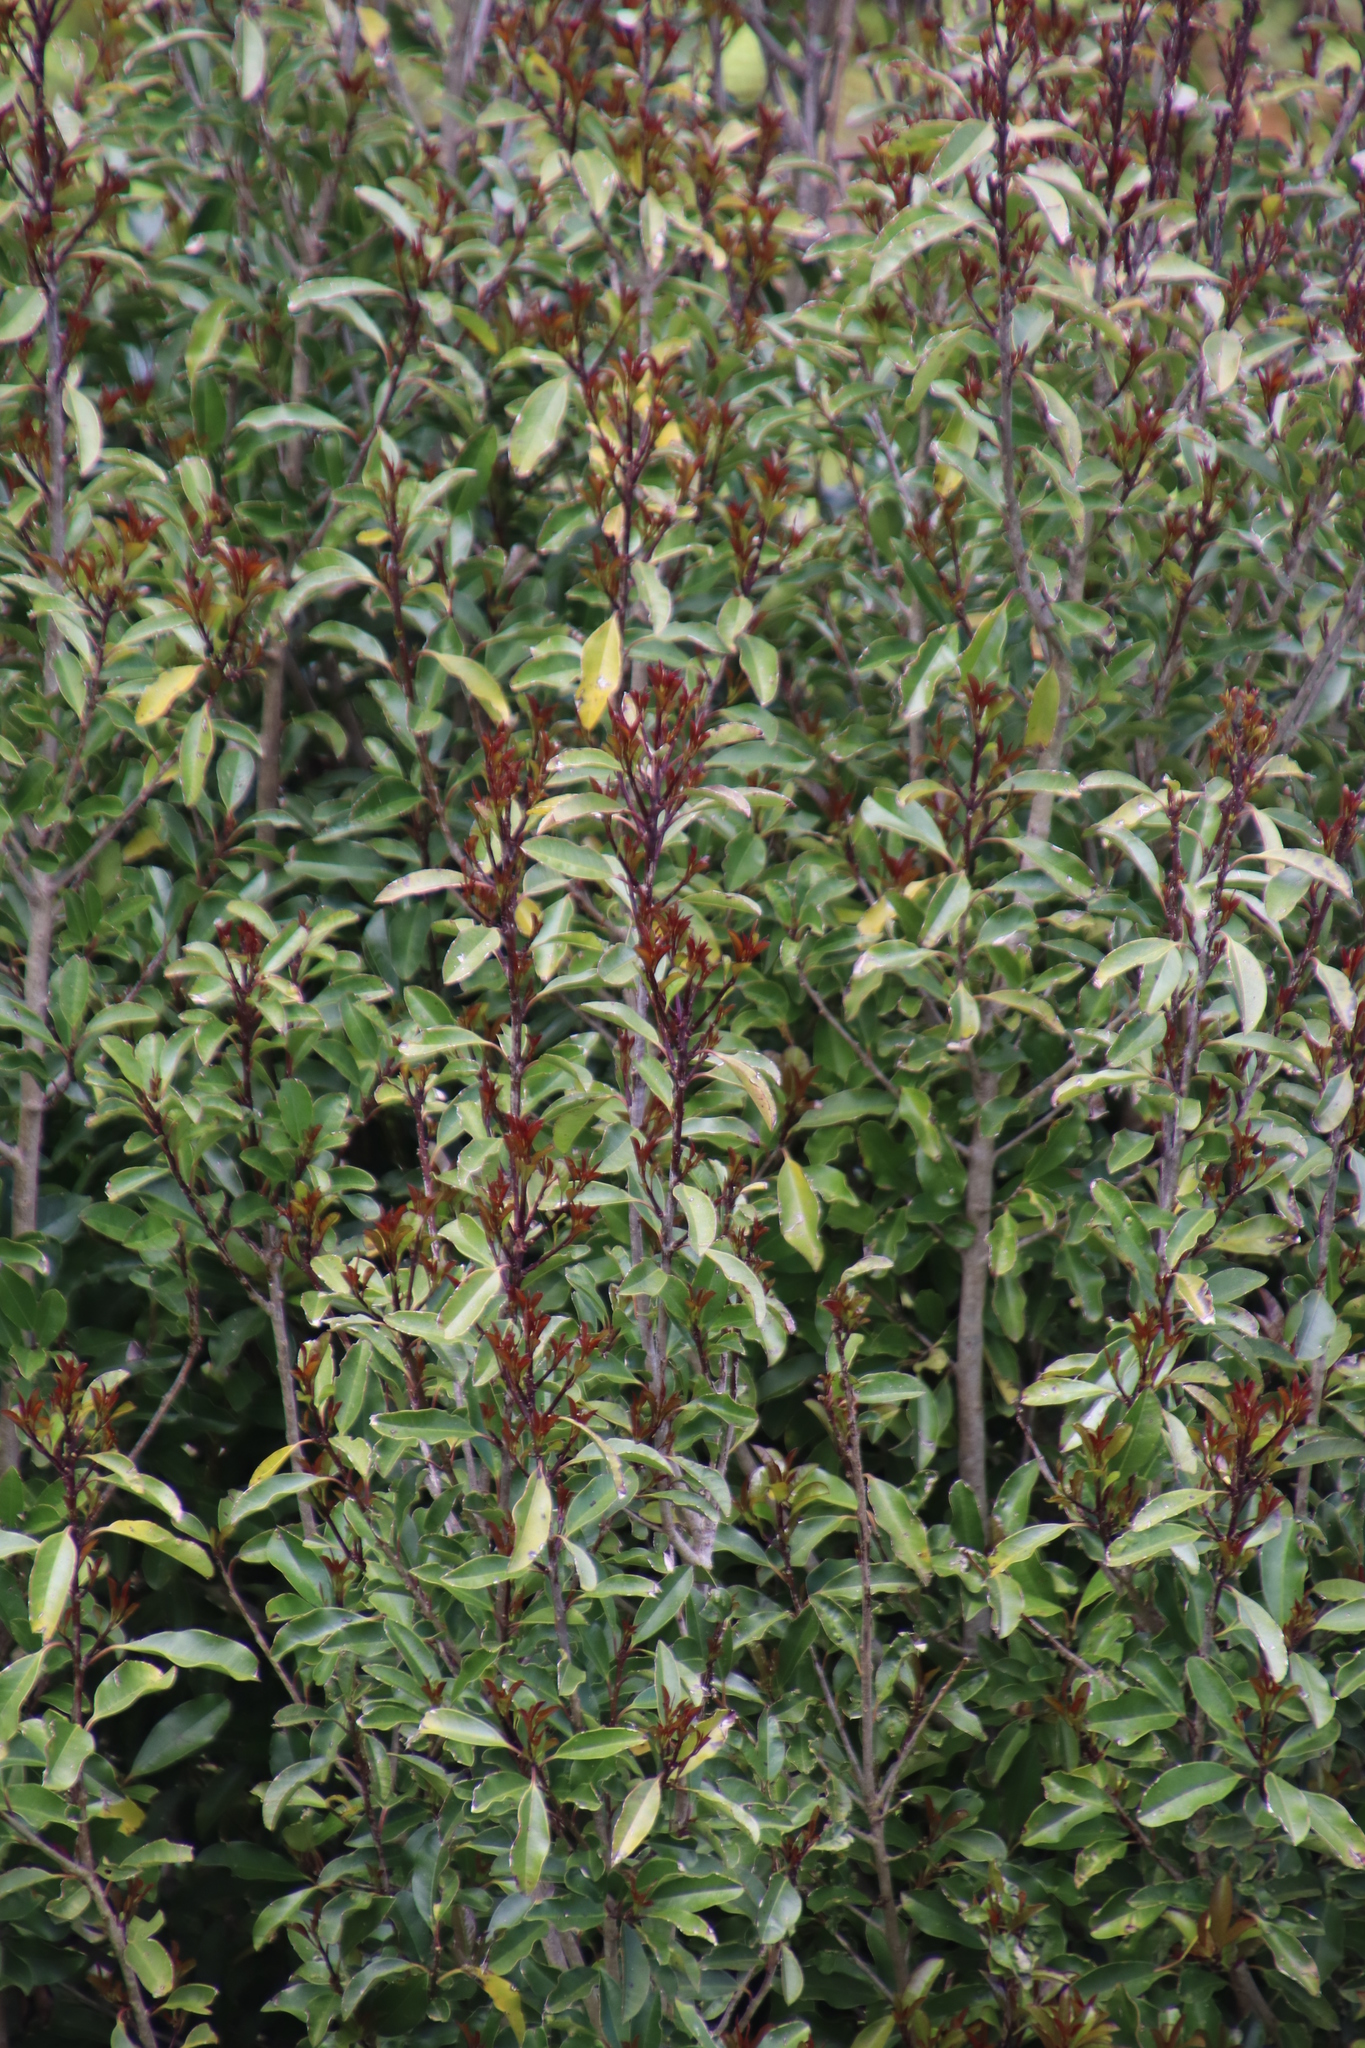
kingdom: Plantae
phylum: Tracheophyta
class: Magnoliopsida
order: Aquifoliales
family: Aquifoliaceae
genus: Ilex
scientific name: Ilex mitis
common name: African holly
